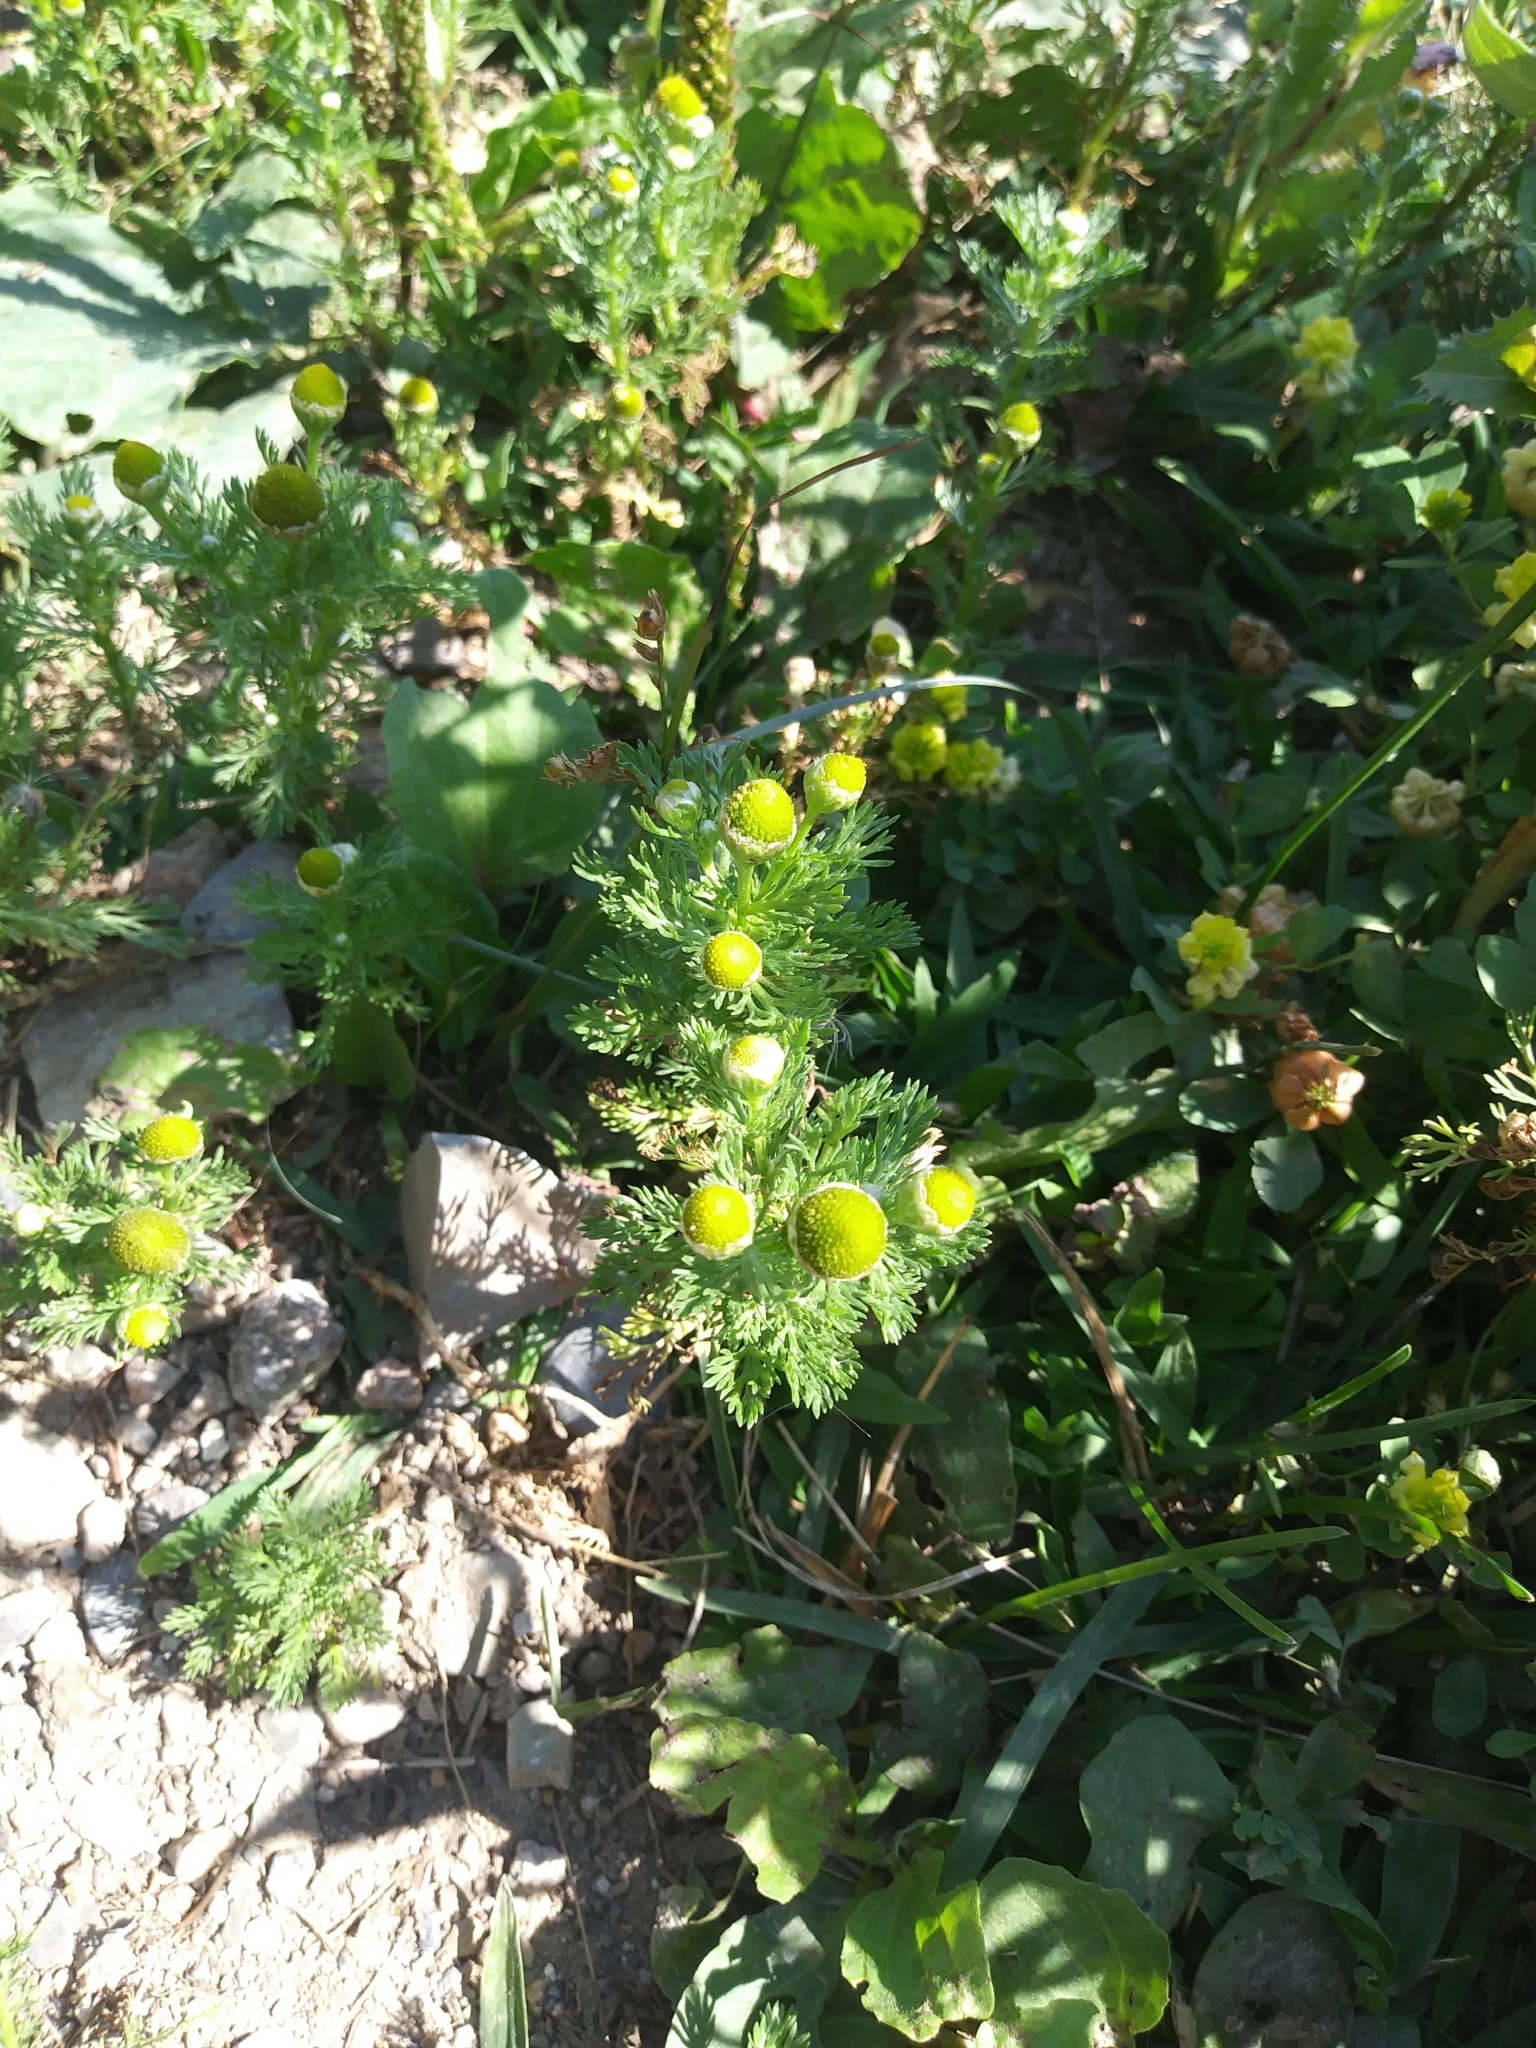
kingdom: Plantae
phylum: Tracheophyta
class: Magnoliopsida
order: Asterales
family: Asteraceae
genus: Matricaria
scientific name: Matricaria discoidea
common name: Disc mayweed
